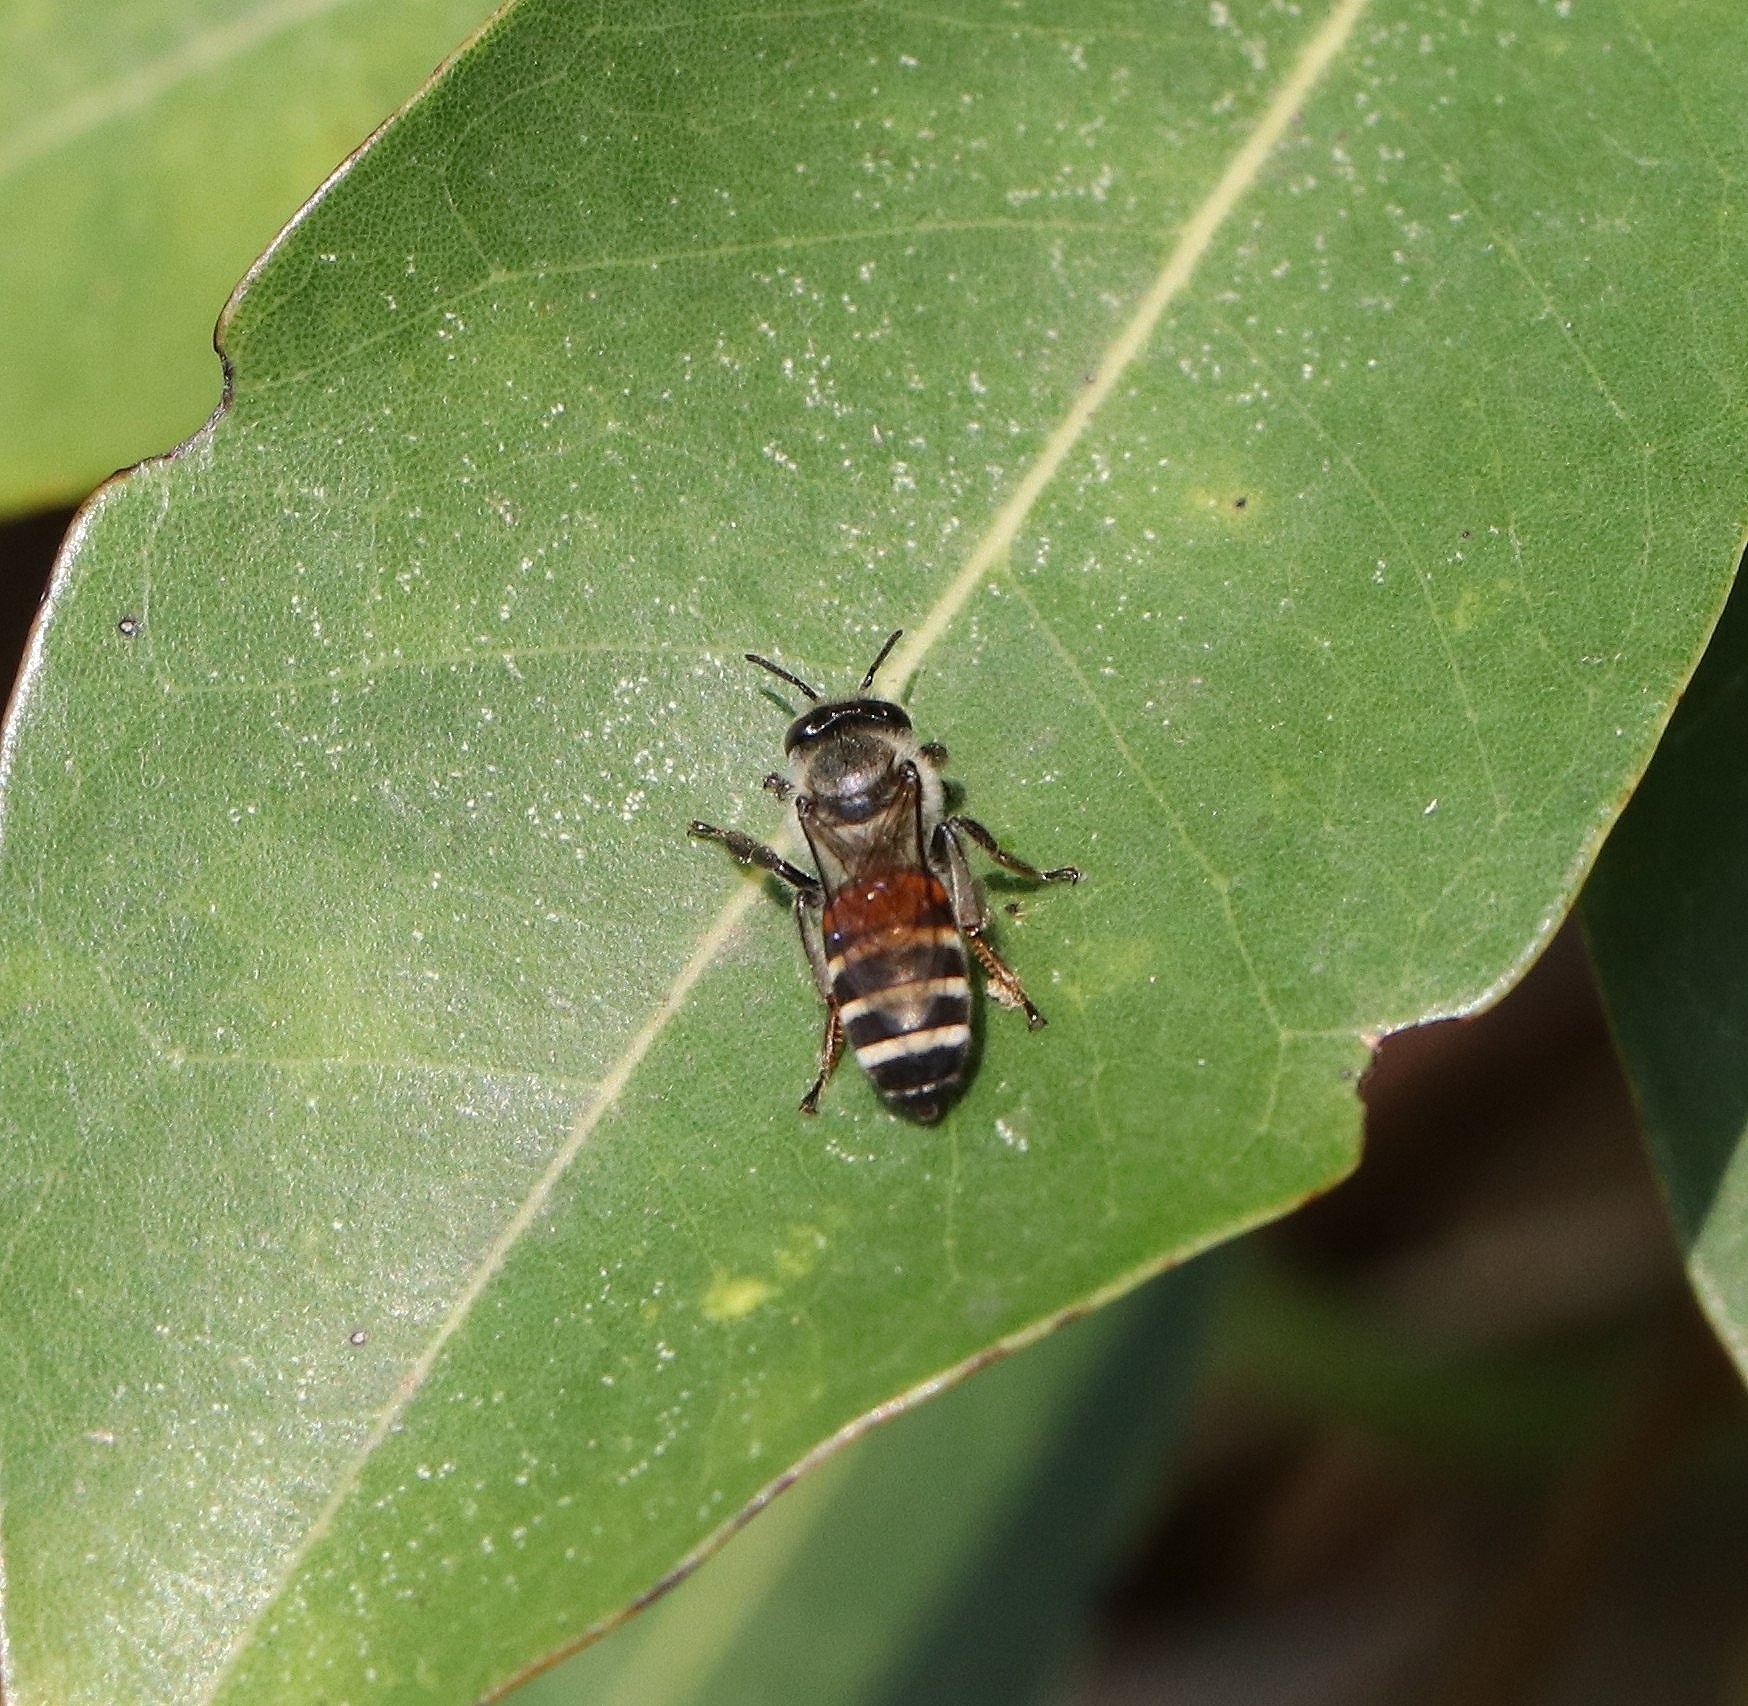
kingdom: Animalia
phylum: Arthropoda
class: Insecta
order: Hymenoptera
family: Apidae
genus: Apis
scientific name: Apis florea
